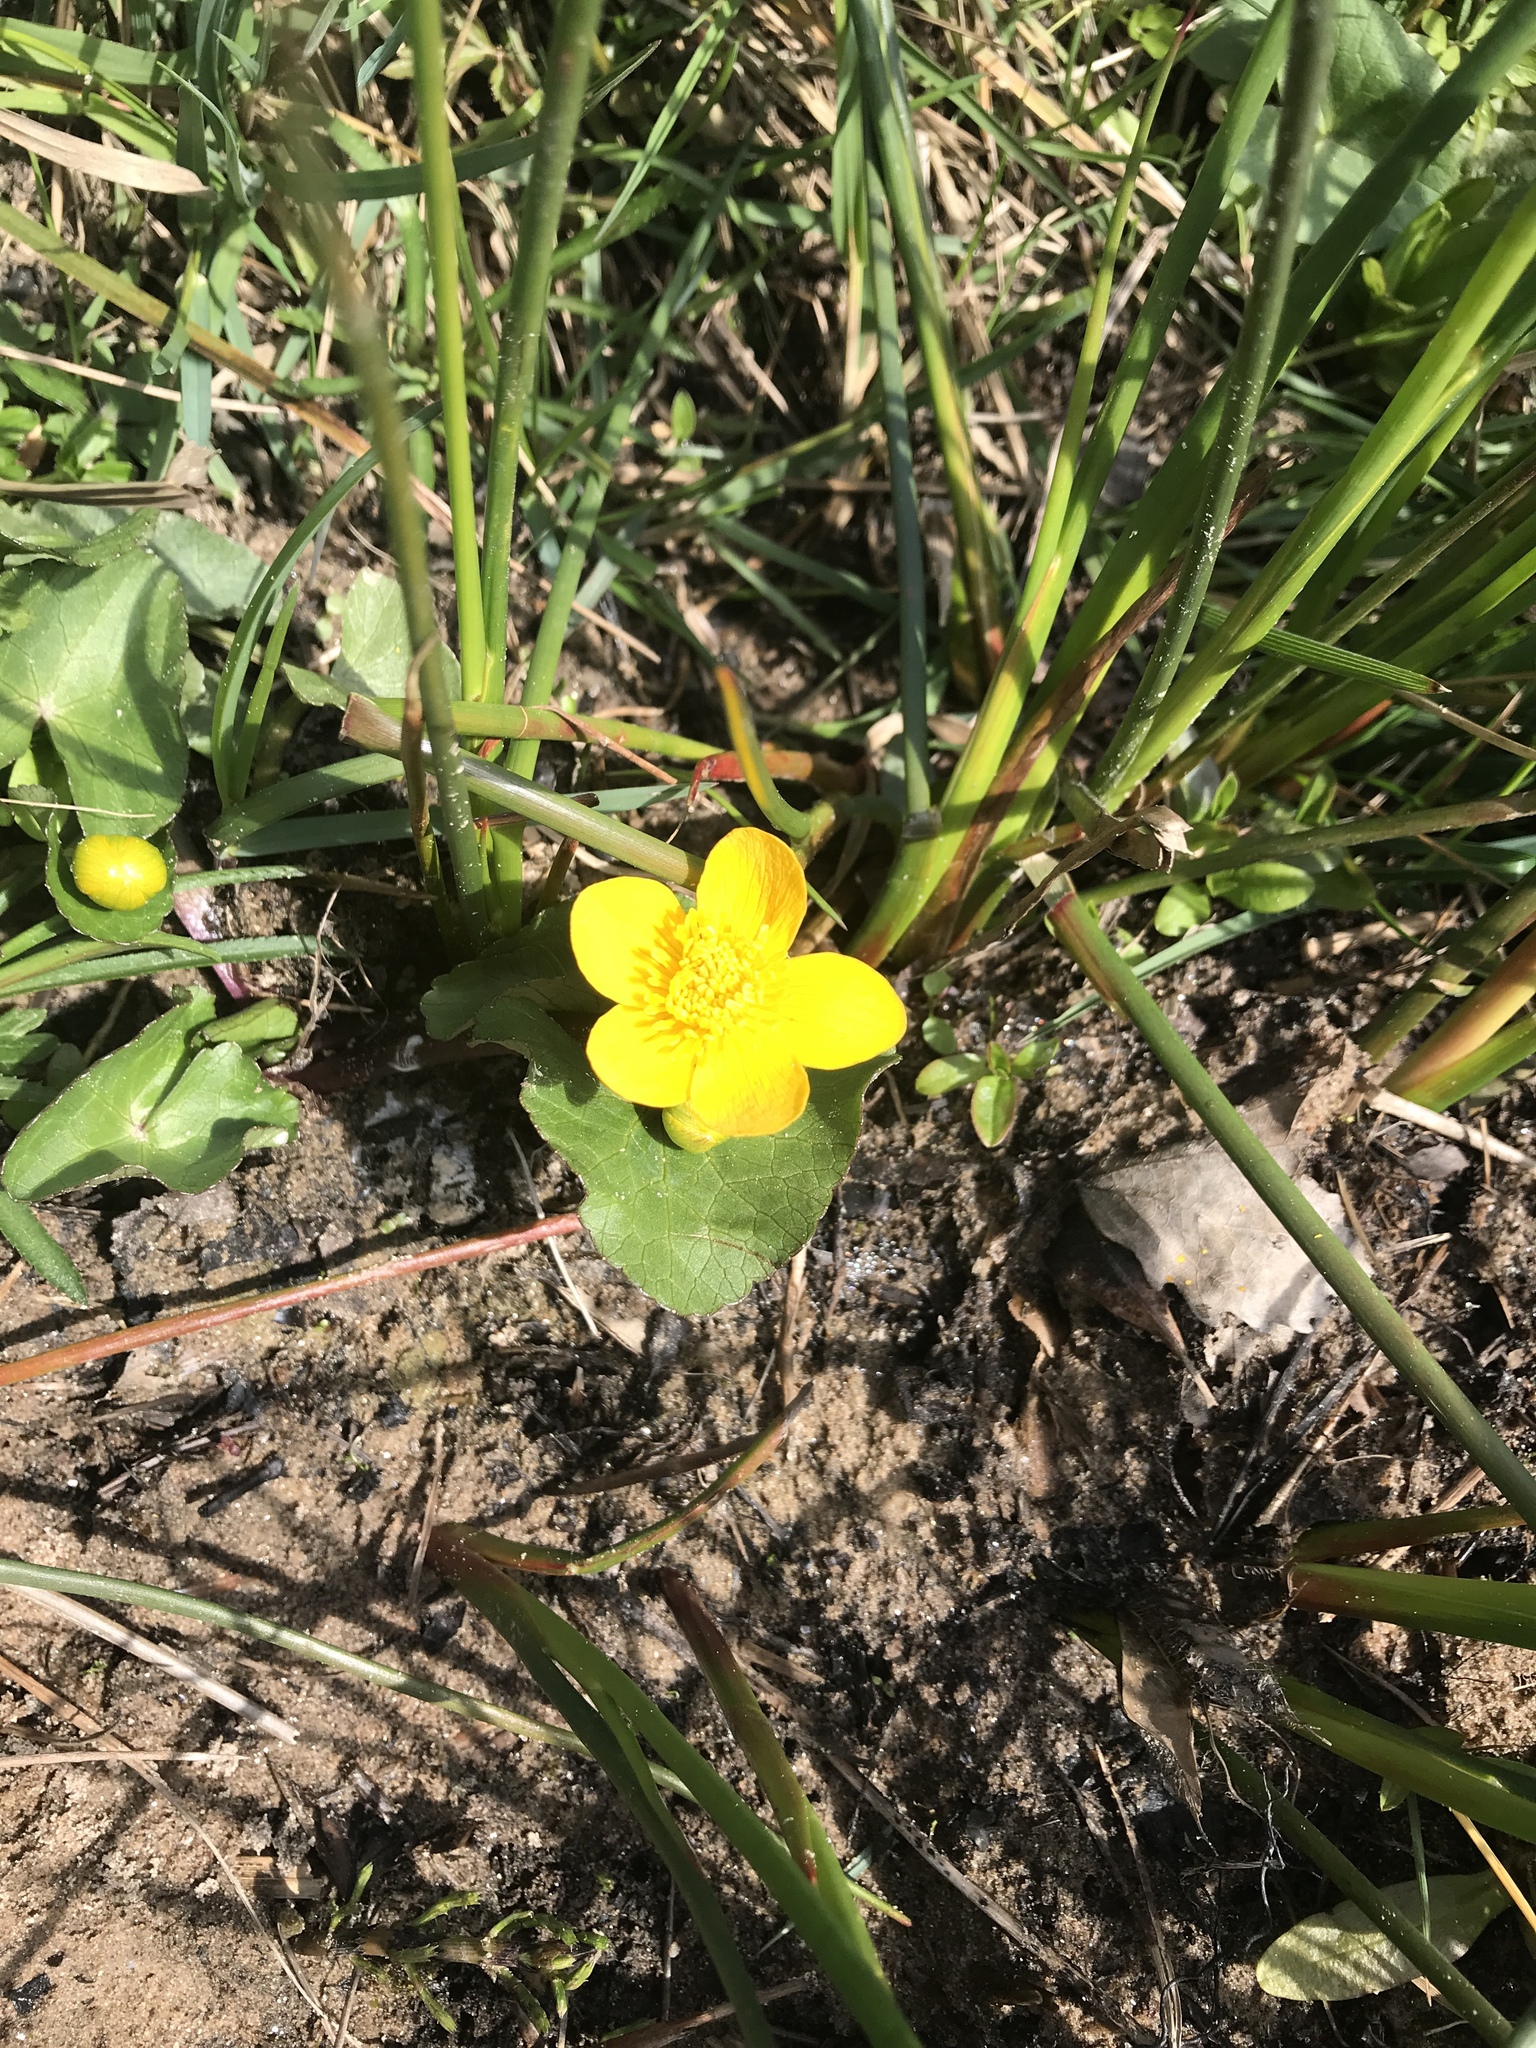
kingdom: Plantae
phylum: Tracheophyta
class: Magnoliopsida
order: Ranunculales
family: Ranunculaceae
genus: Caltha
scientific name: Caltha palustris
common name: Marsh marigold
